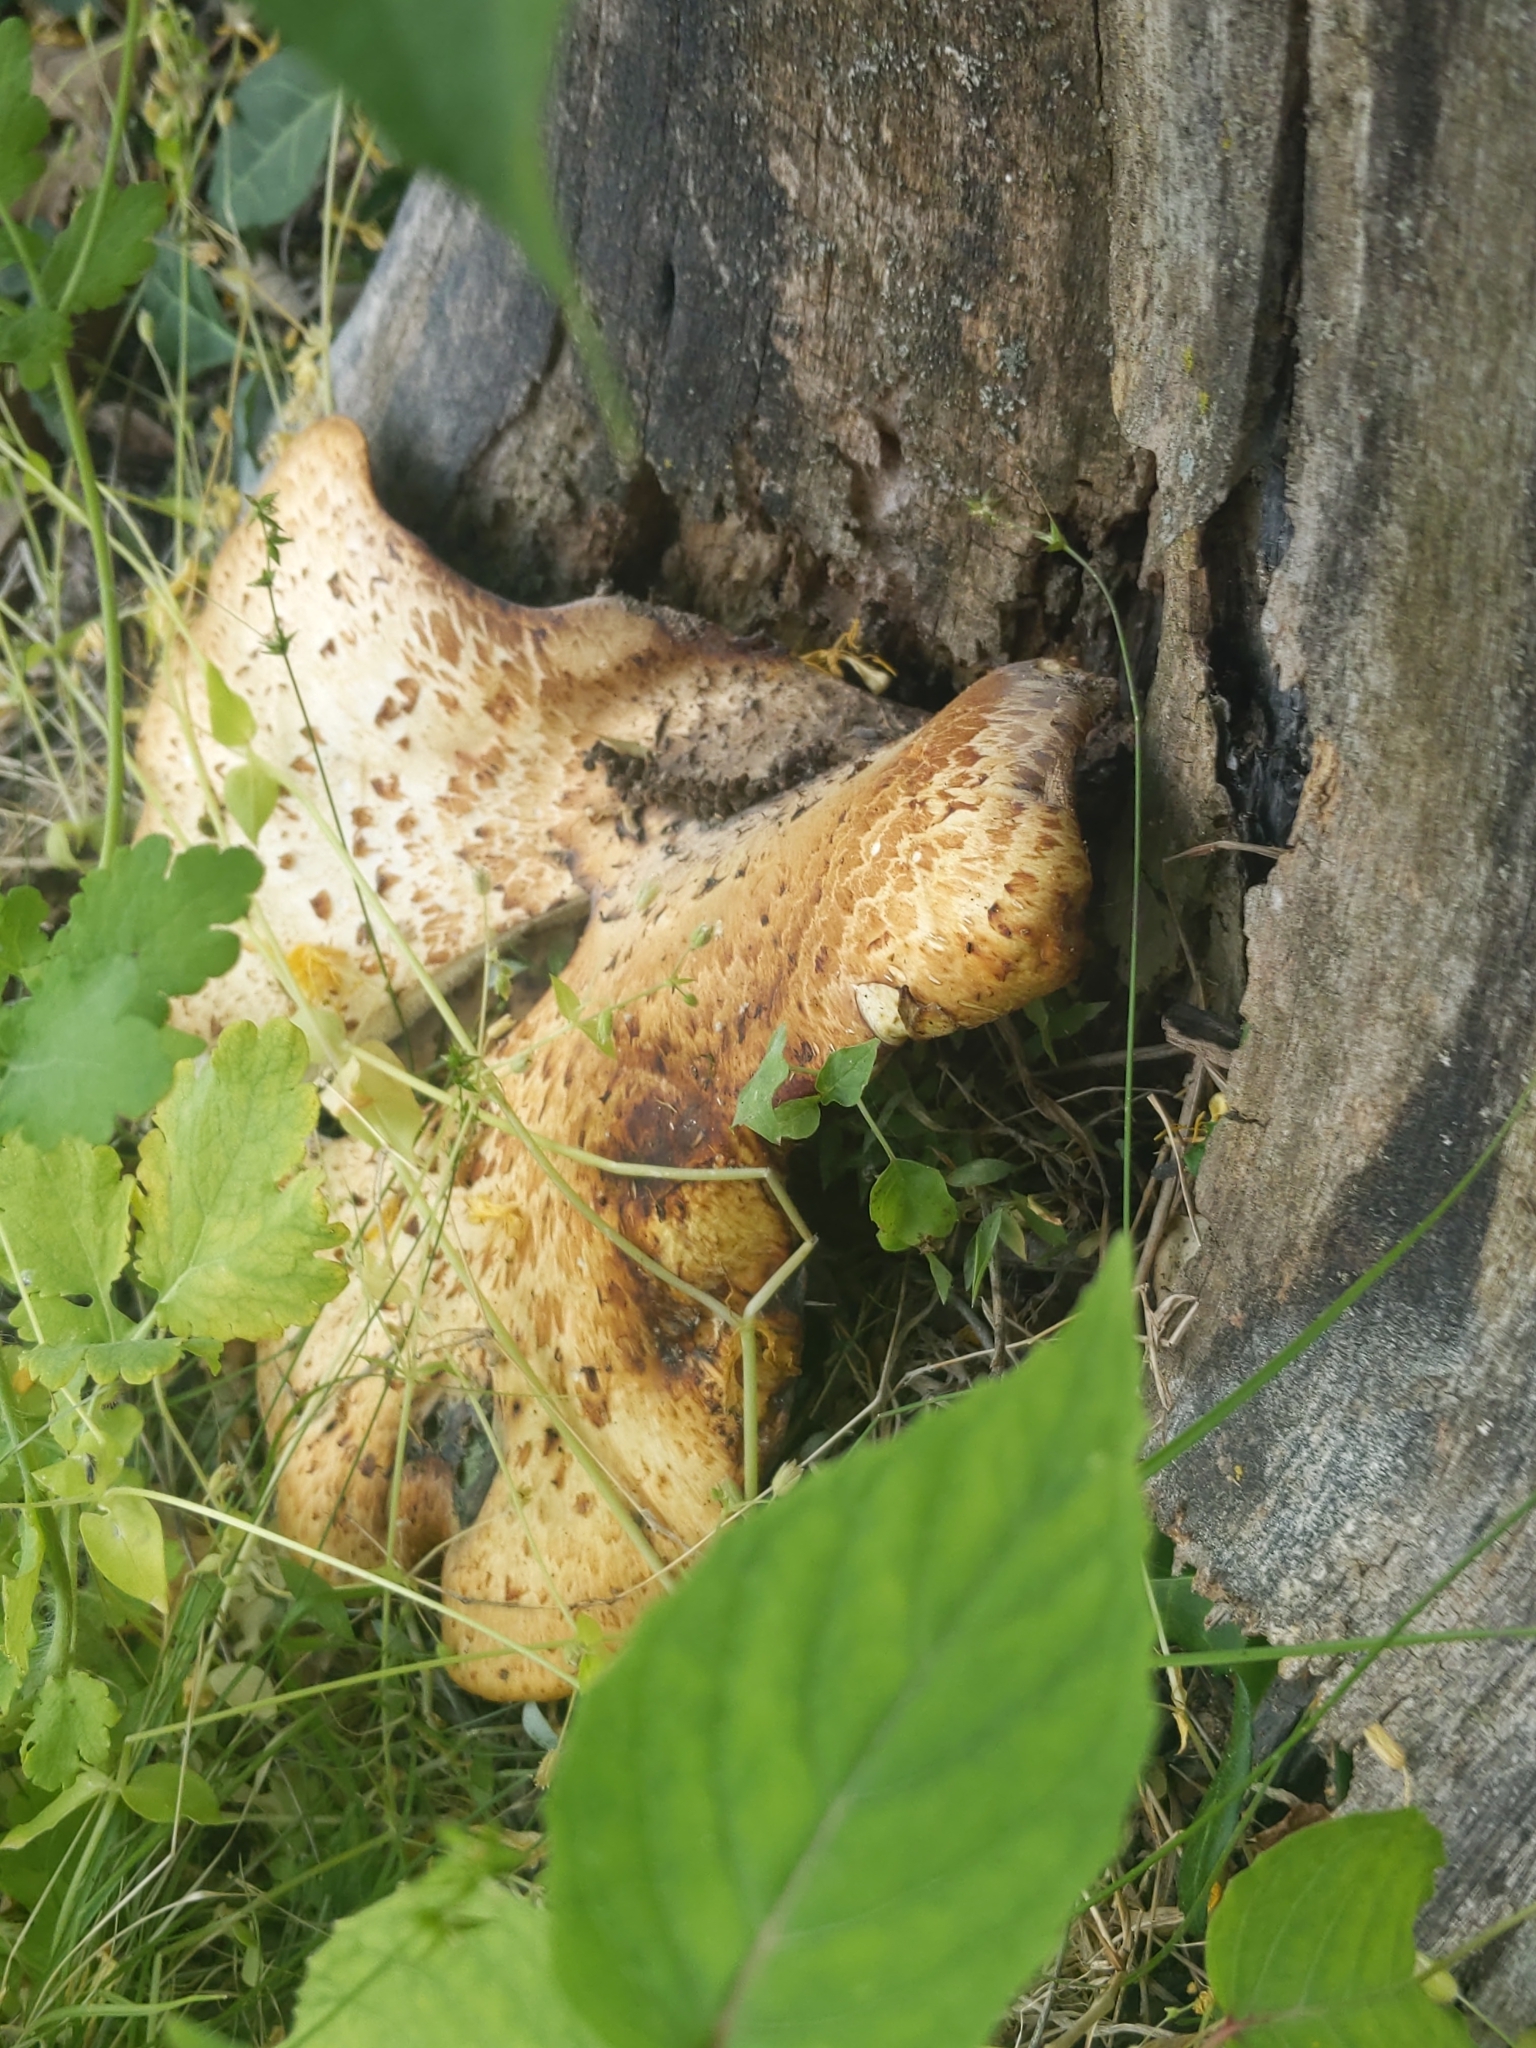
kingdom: Fungi
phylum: Basidiomycota
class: Agaricomycetes
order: Polyporales
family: Polyporaceae
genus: Cerioporus
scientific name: Cerioporus squamosus
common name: Dryad's saddle
